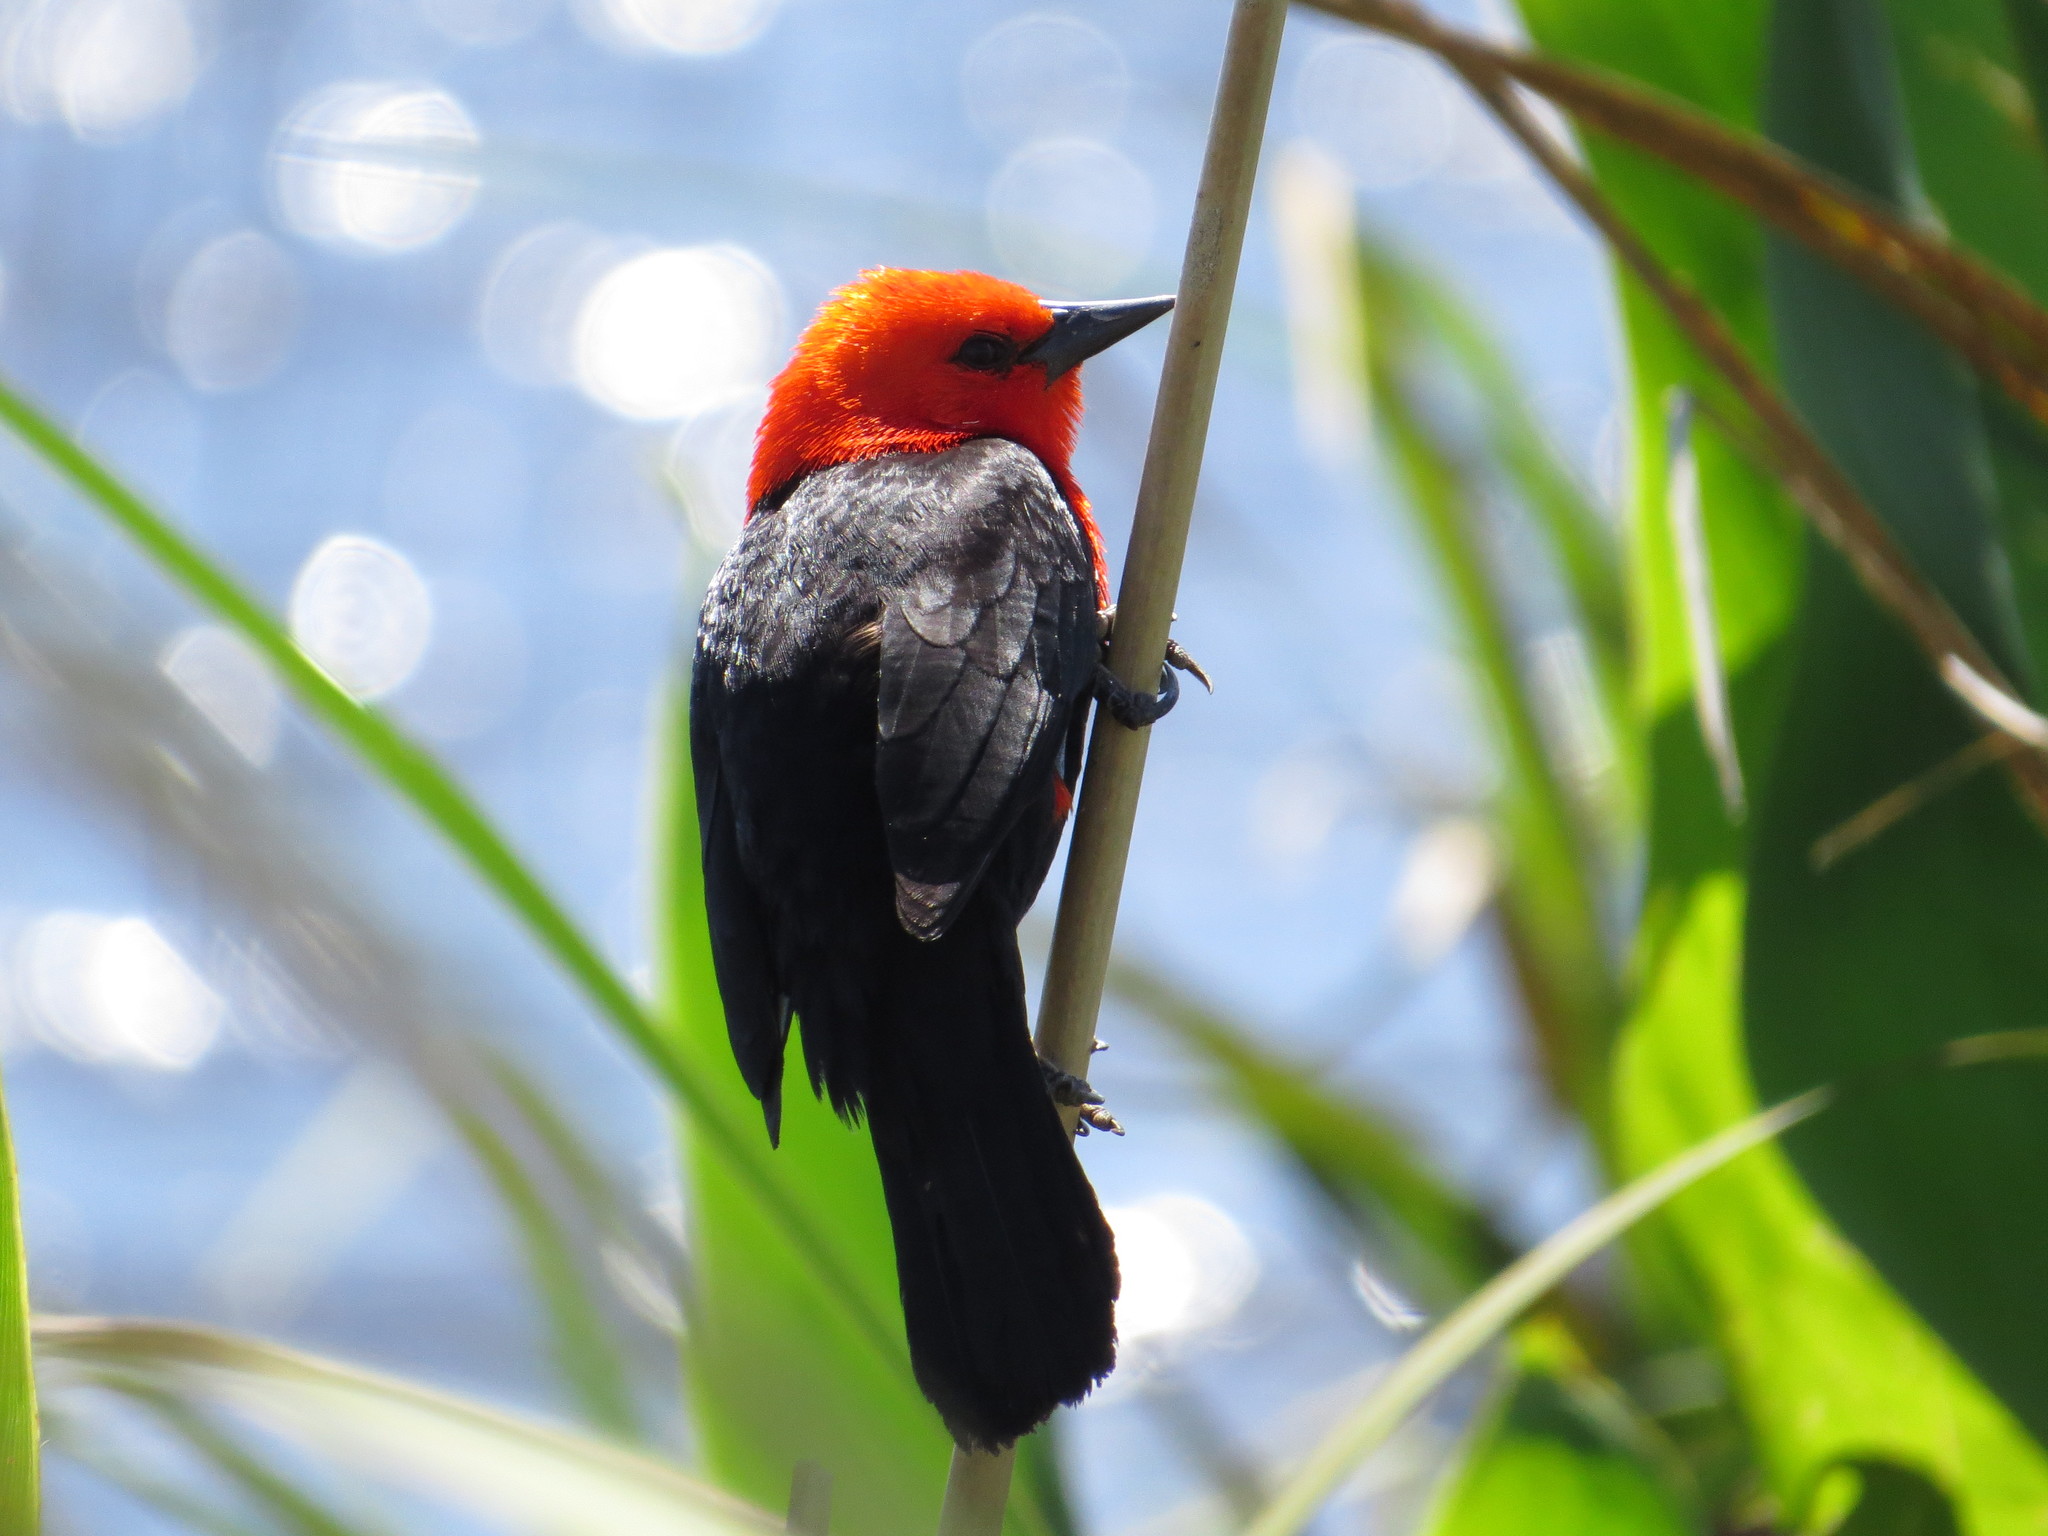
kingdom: Animalia
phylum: Chordata
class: Aves
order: Passeriformes
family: Icteridae
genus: Amblyramphus
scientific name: Amblyramphus holosericeus
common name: Scarlet-headed blackbird
